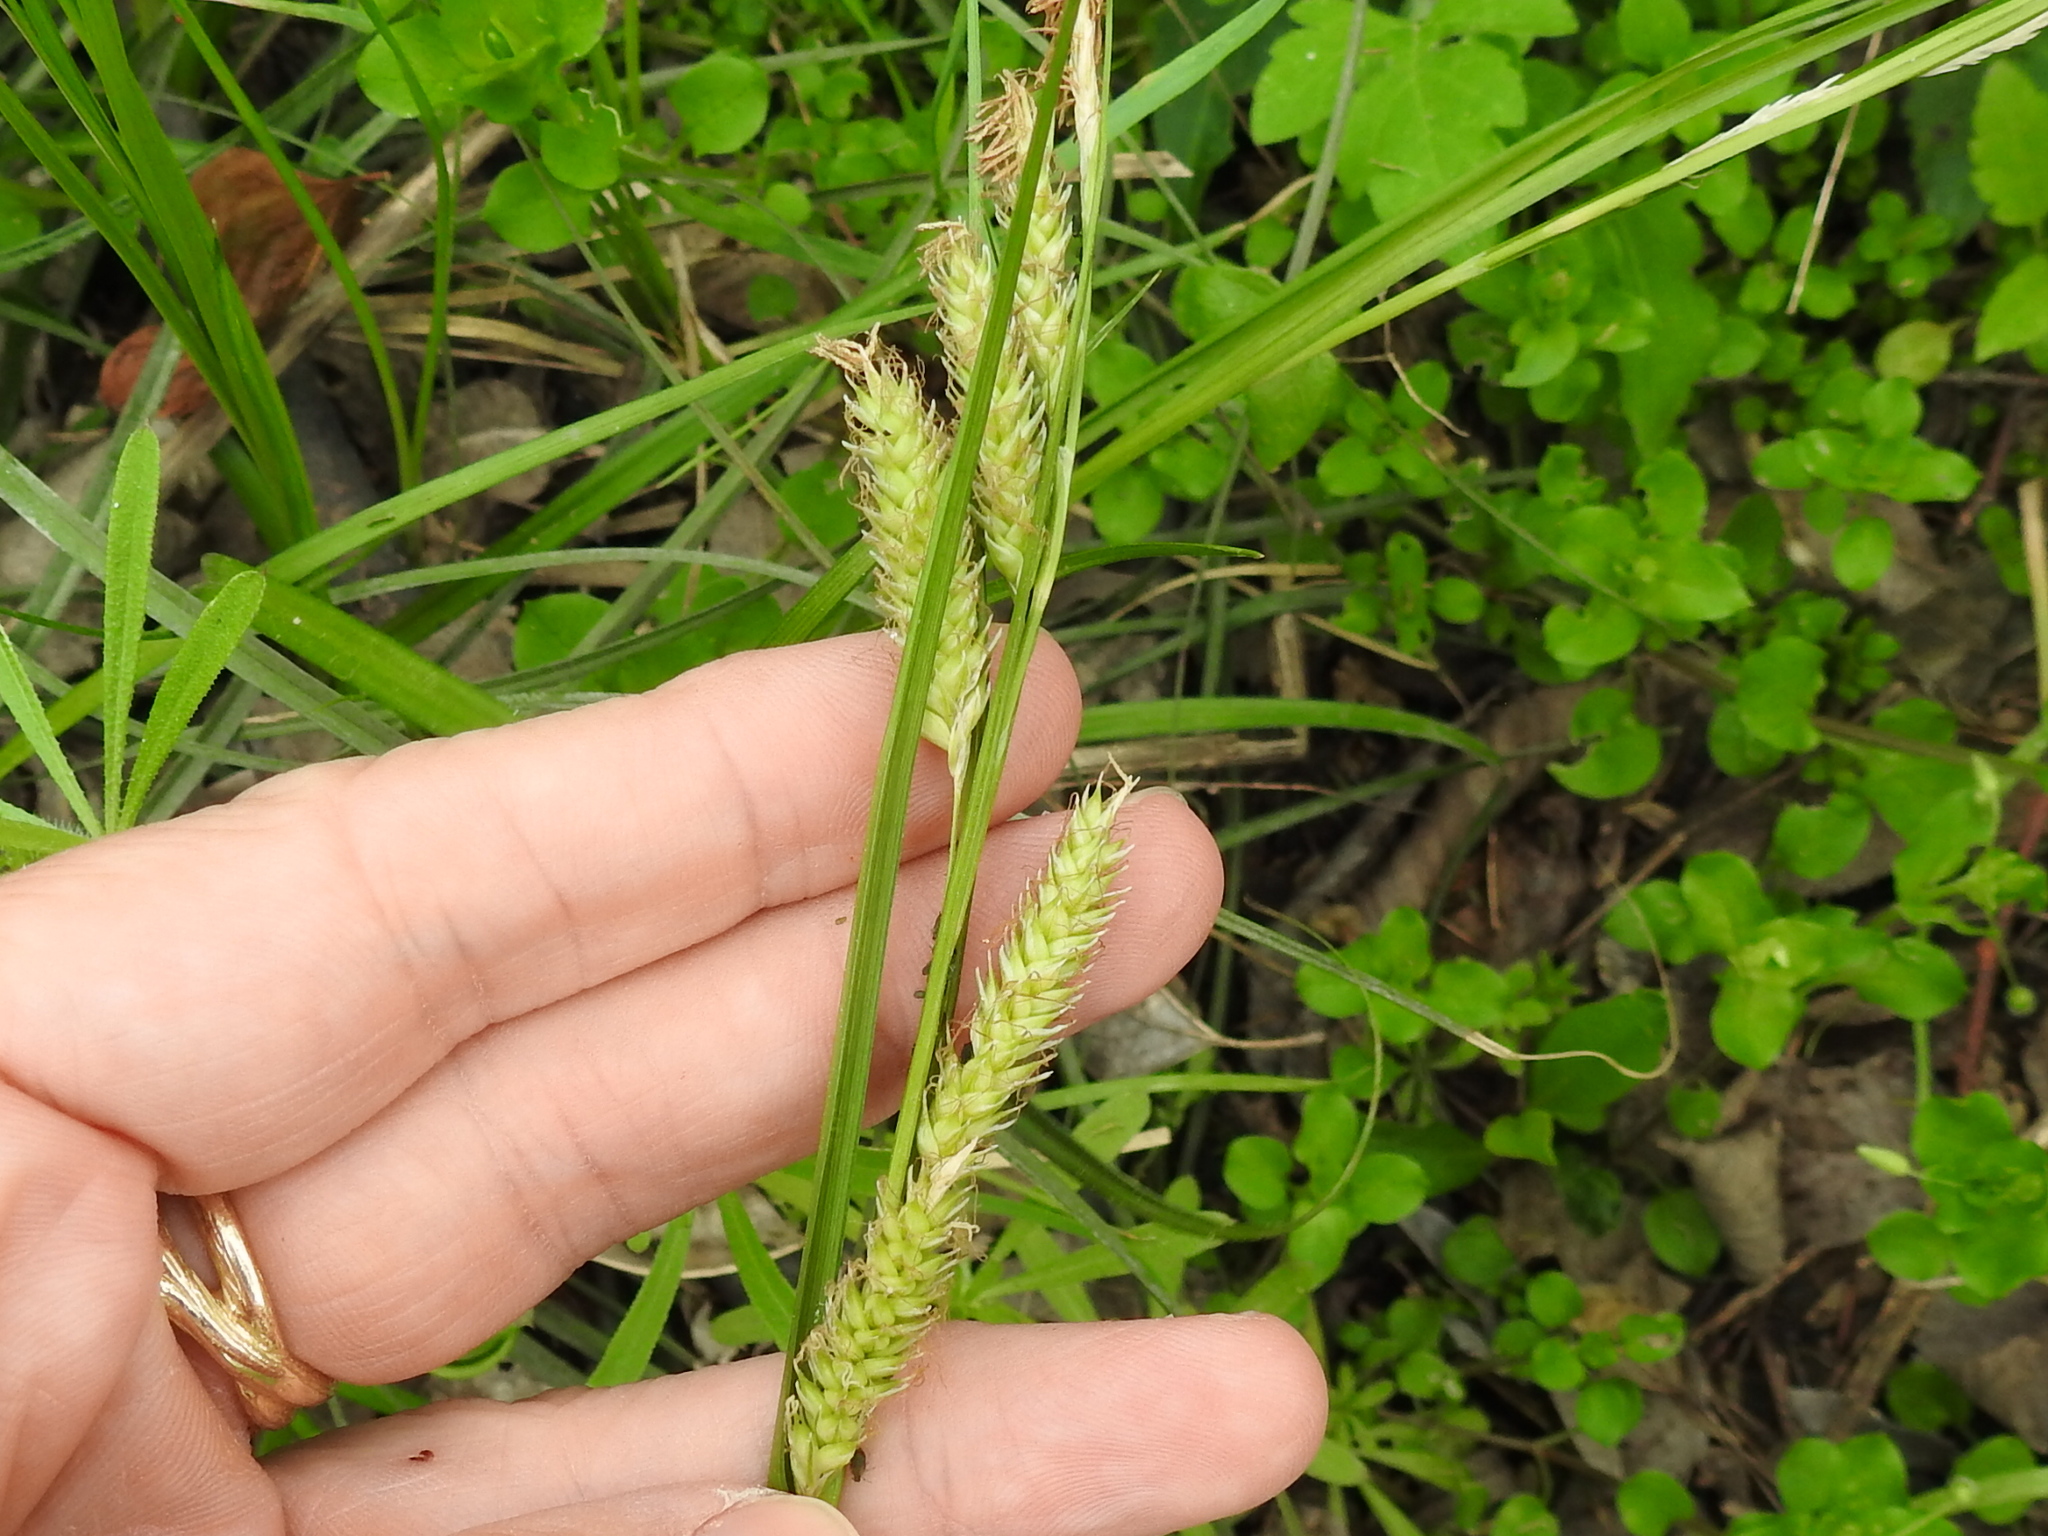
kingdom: Plantae
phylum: Tracheophyta
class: Liliopsida
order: Poales
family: Cyperaceae
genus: Carex
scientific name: Carex cherokeensis
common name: Cherokee sedge
